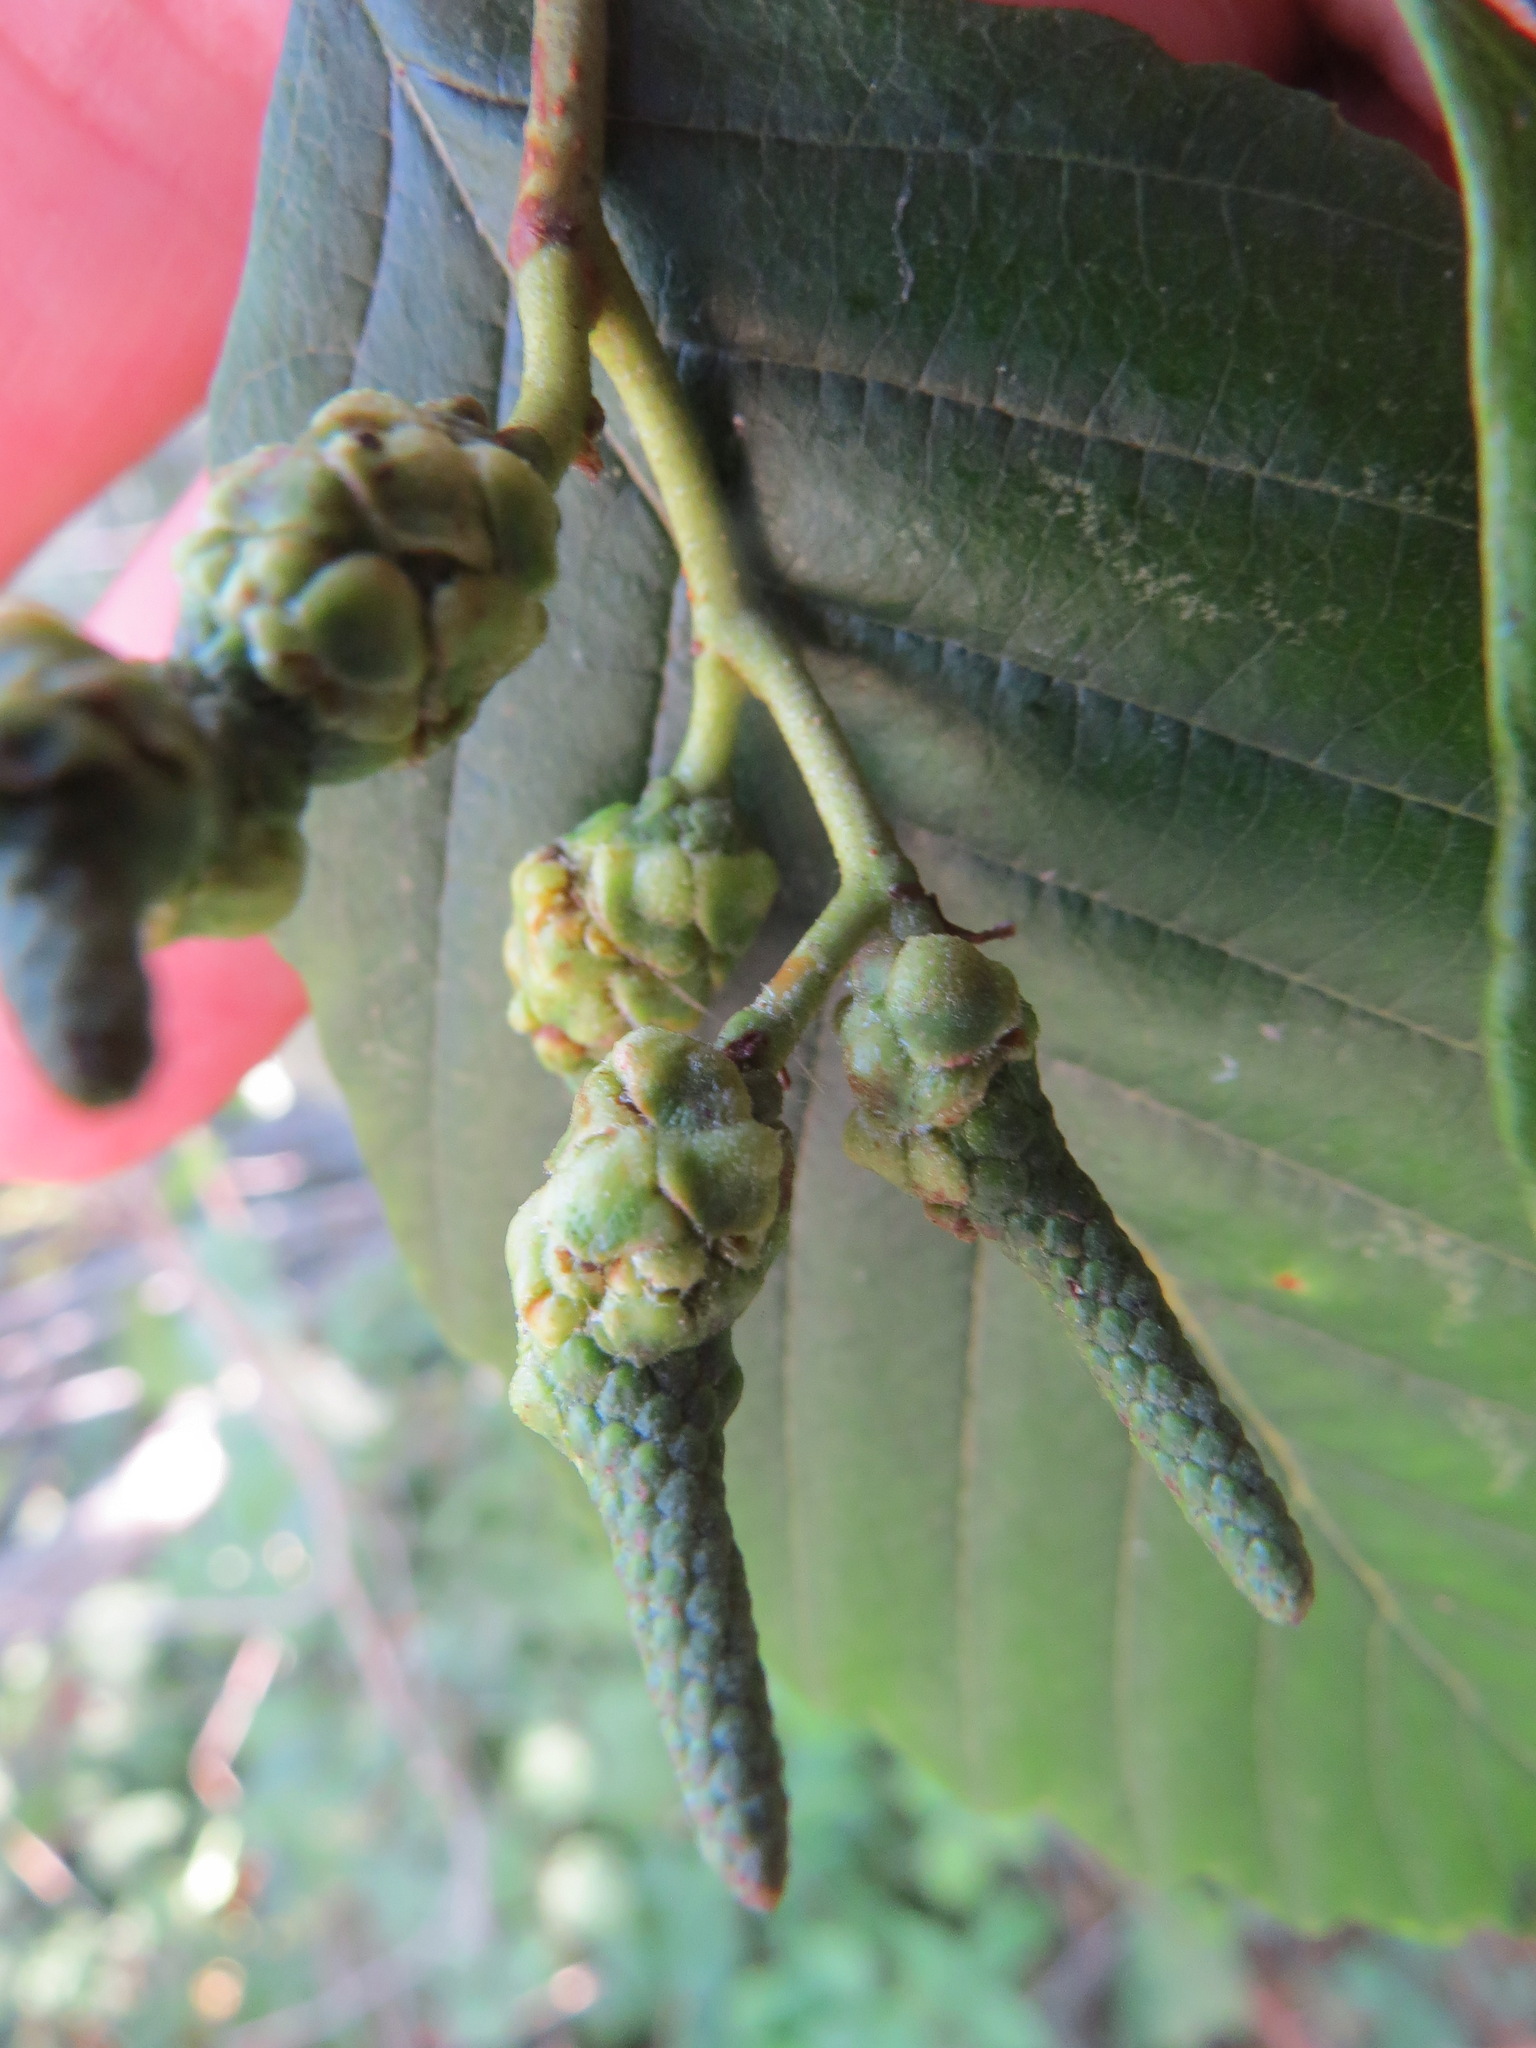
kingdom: Animalia
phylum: Arthropoda
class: Insecta
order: Diptera
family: Cecidomyiidae
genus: Dasineura
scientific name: Dasineura
